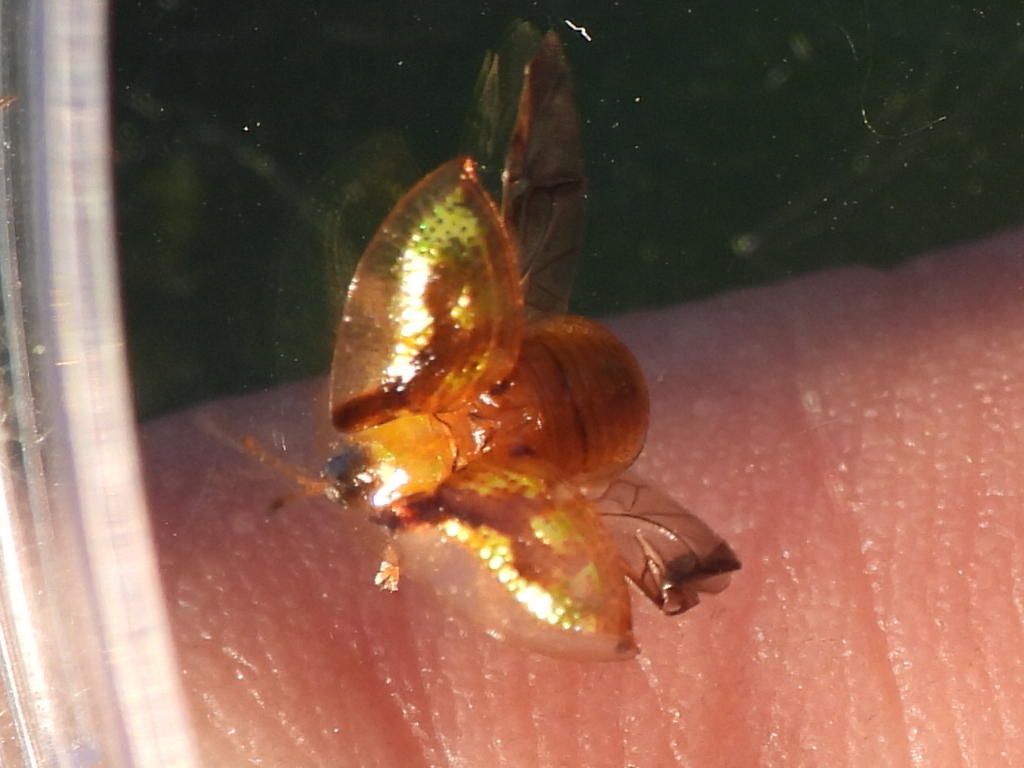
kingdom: Animalia
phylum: Arthropoda
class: Insecta
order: Coleoptera
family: Chrysomelidae
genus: Deloyala
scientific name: Deloyala guttata
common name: Mottled tortoise beetle
